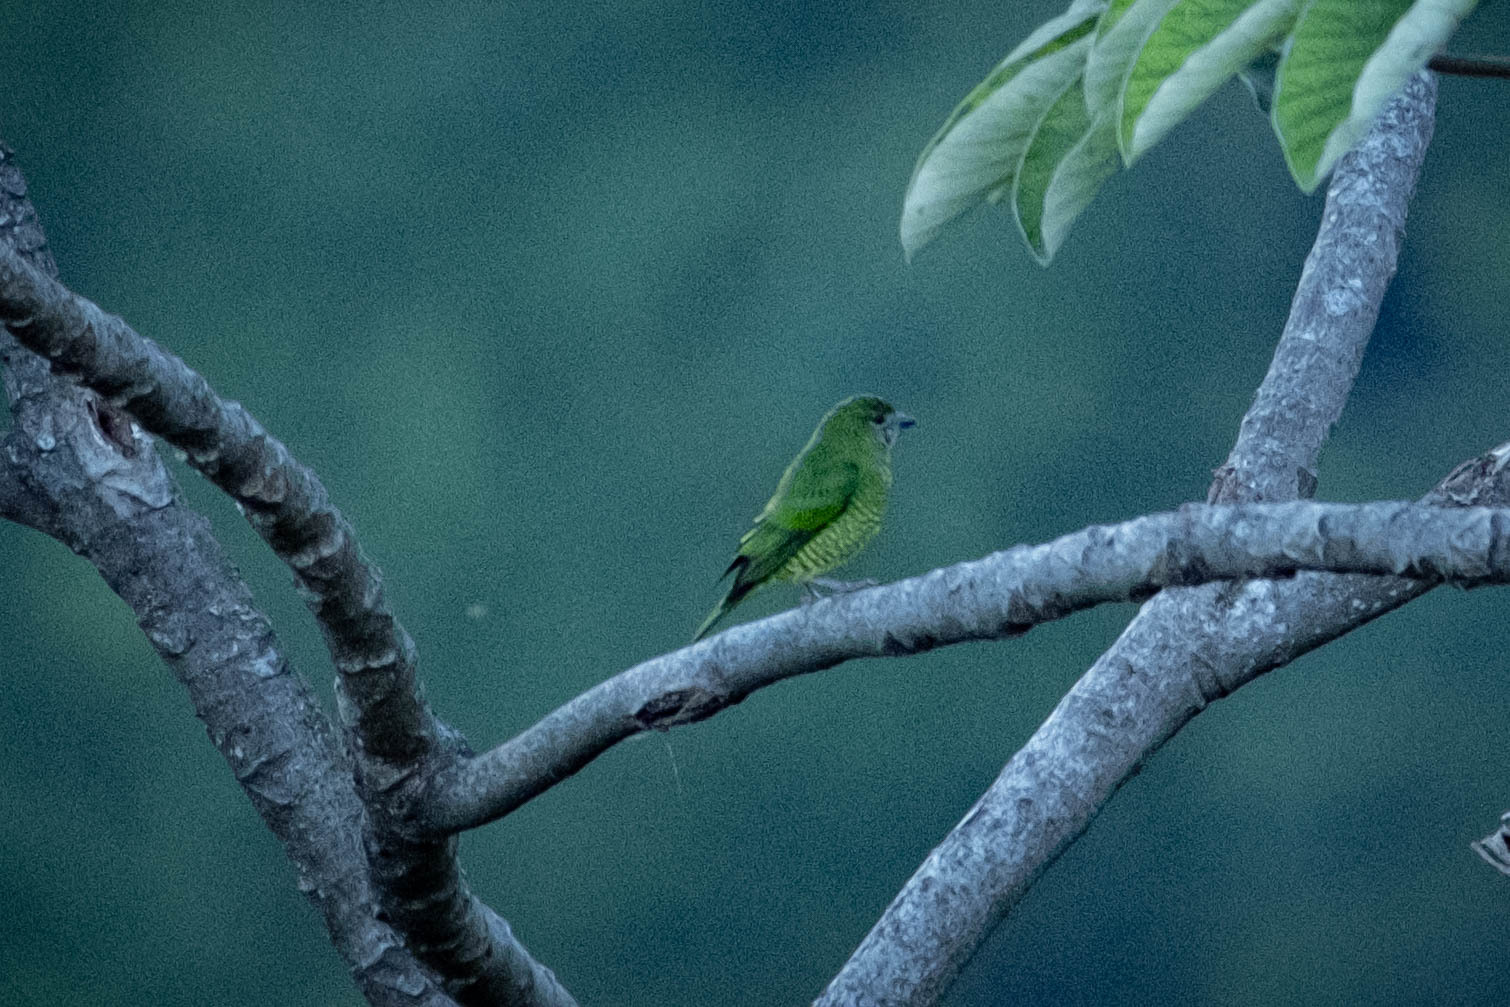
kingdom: Animalia
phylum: Chordata
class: Aves
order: Passeriformes
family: Thraupidae
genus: Tersina
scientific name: Tersina viridis
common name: Swallow tanager
